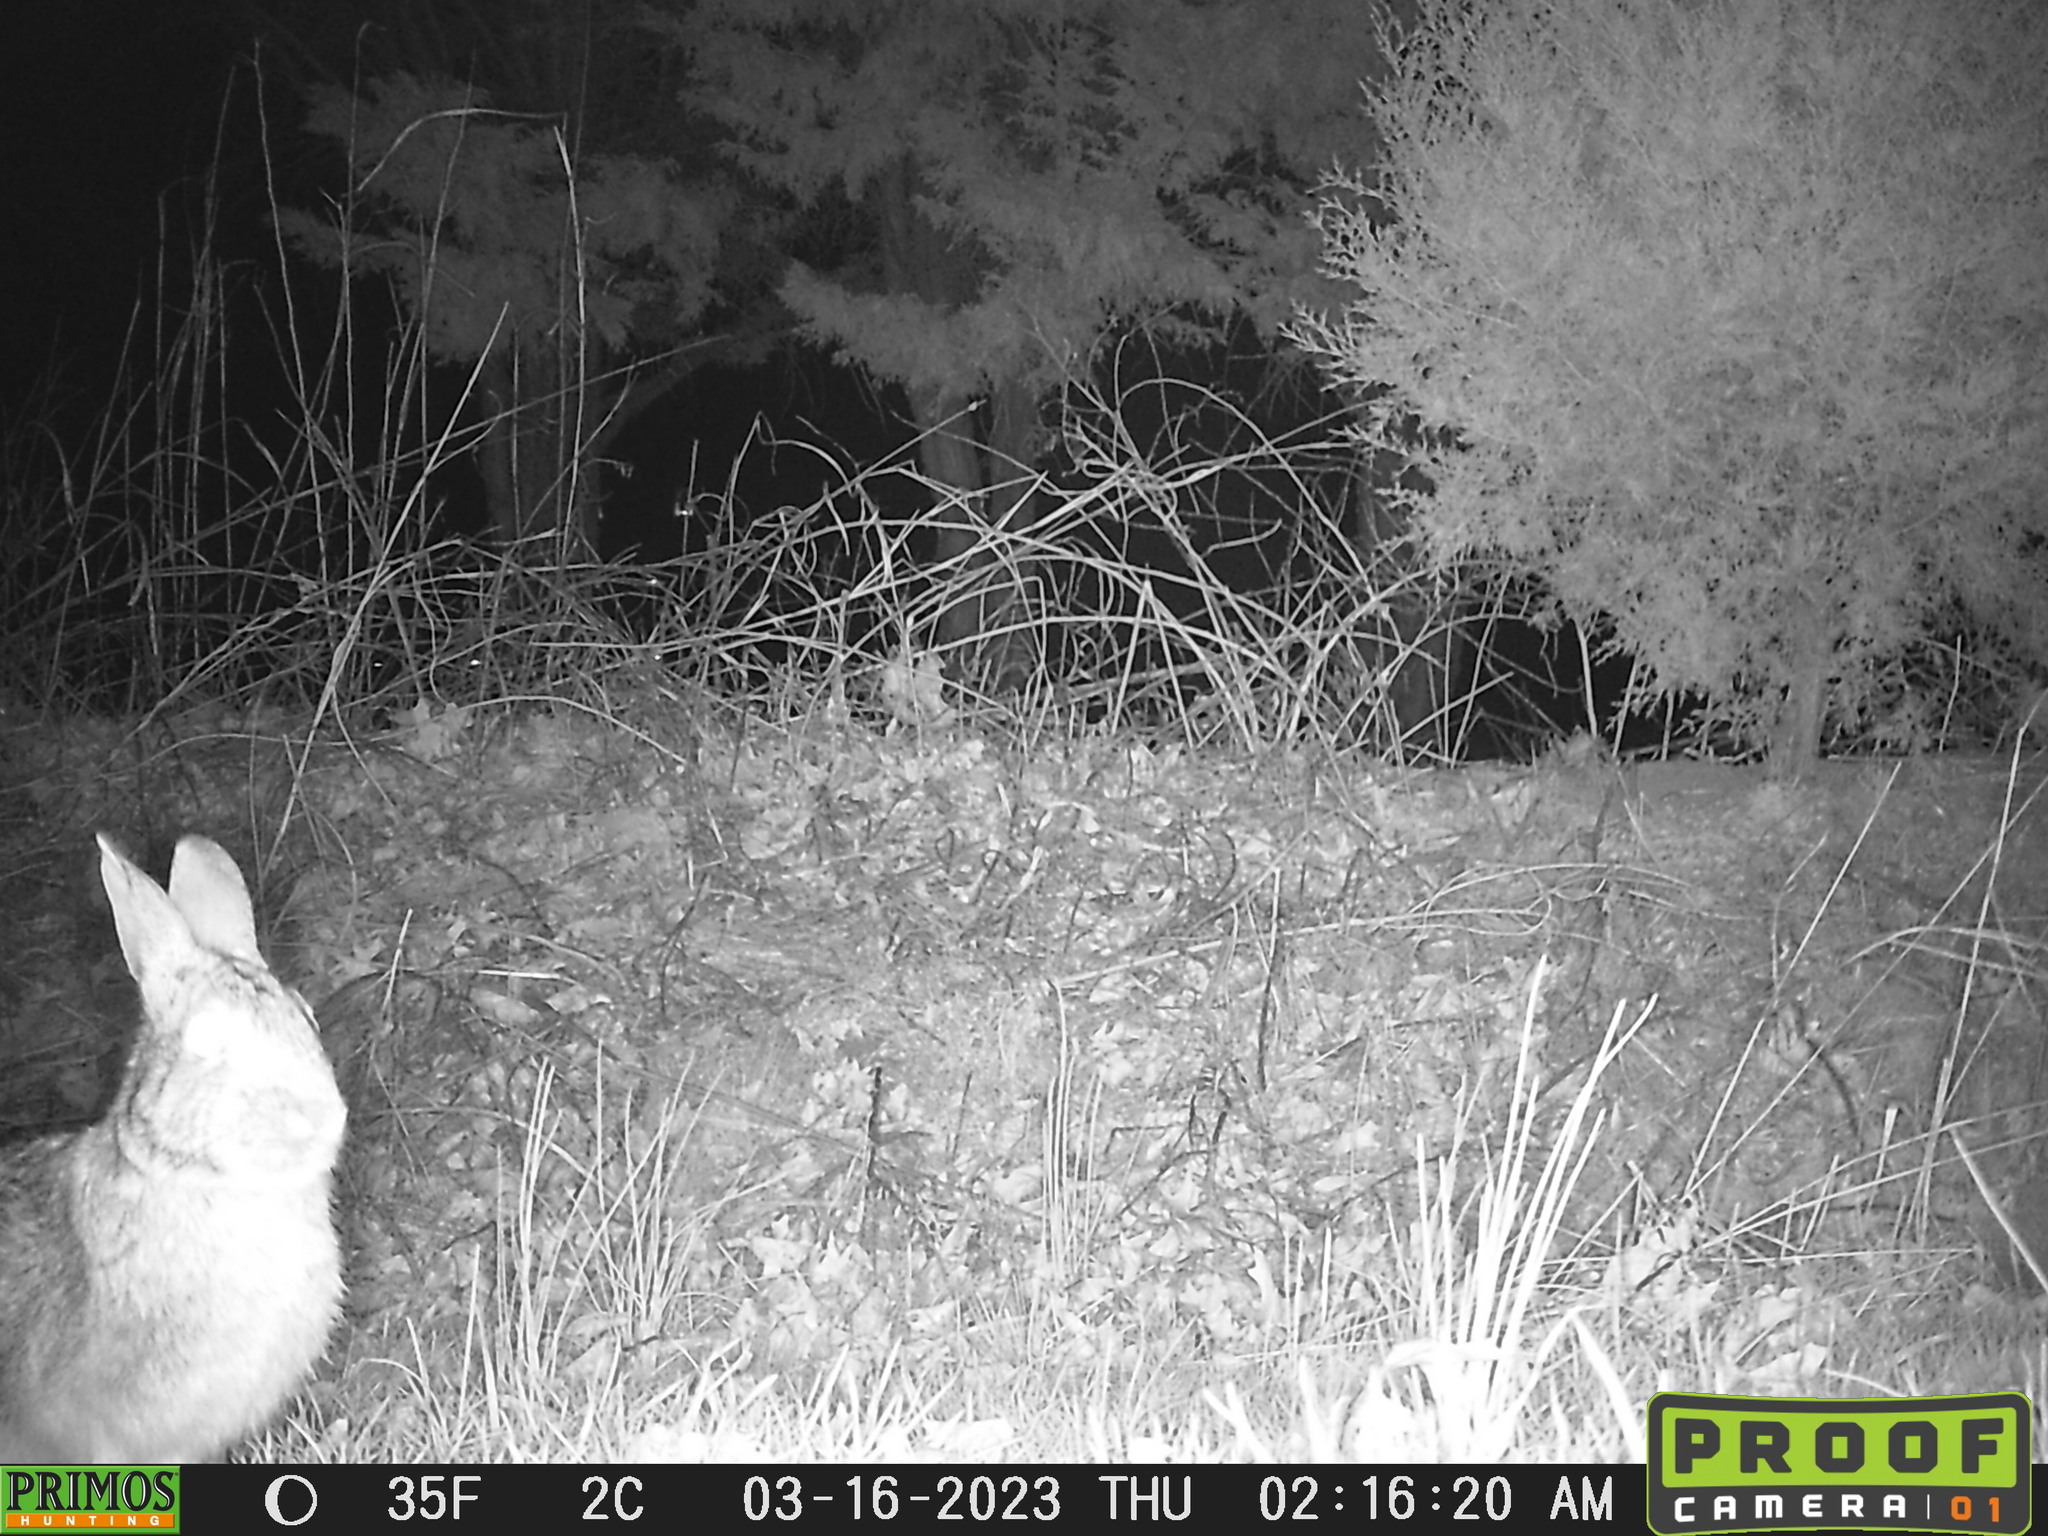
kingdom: Animalia
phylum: Chordata
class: Mammalia
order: Lagomorpha
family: Leporidae
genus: Sylvilagus
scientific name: Sylvilagus floridanus
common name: Eastern cottontail
